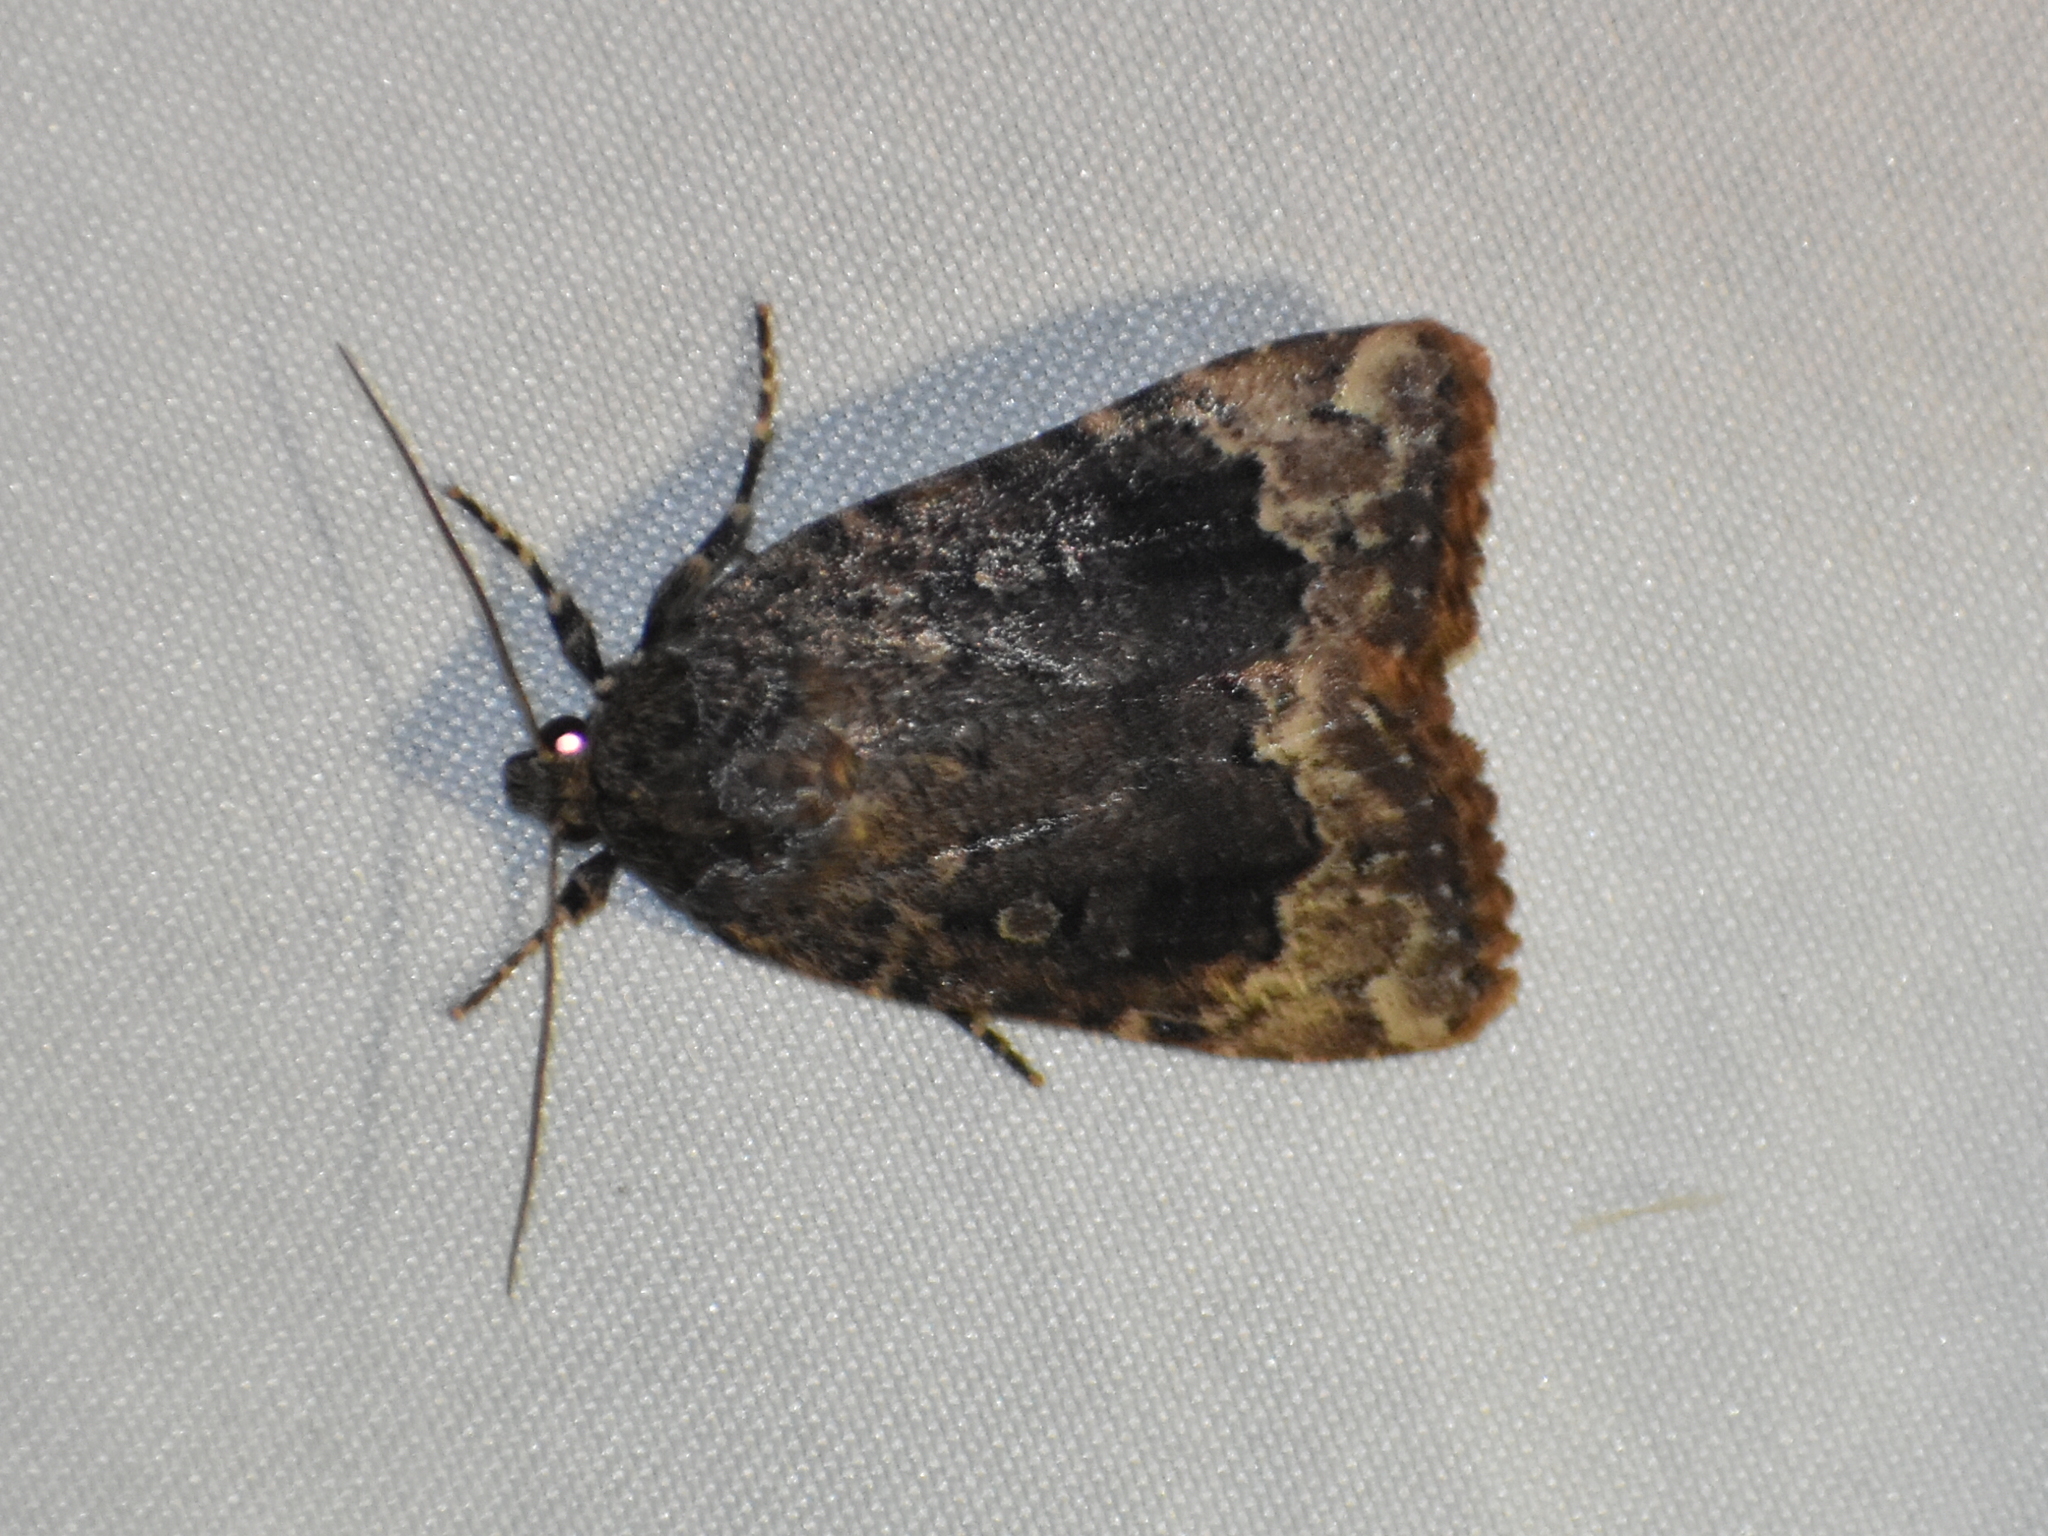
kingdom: Animalia
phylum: Arthropoda
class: Insecta
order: Lepidoptera
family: Noctuidae
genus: Amphipyra
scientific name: Amphipyra pyramidoides
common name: American copper underwing
